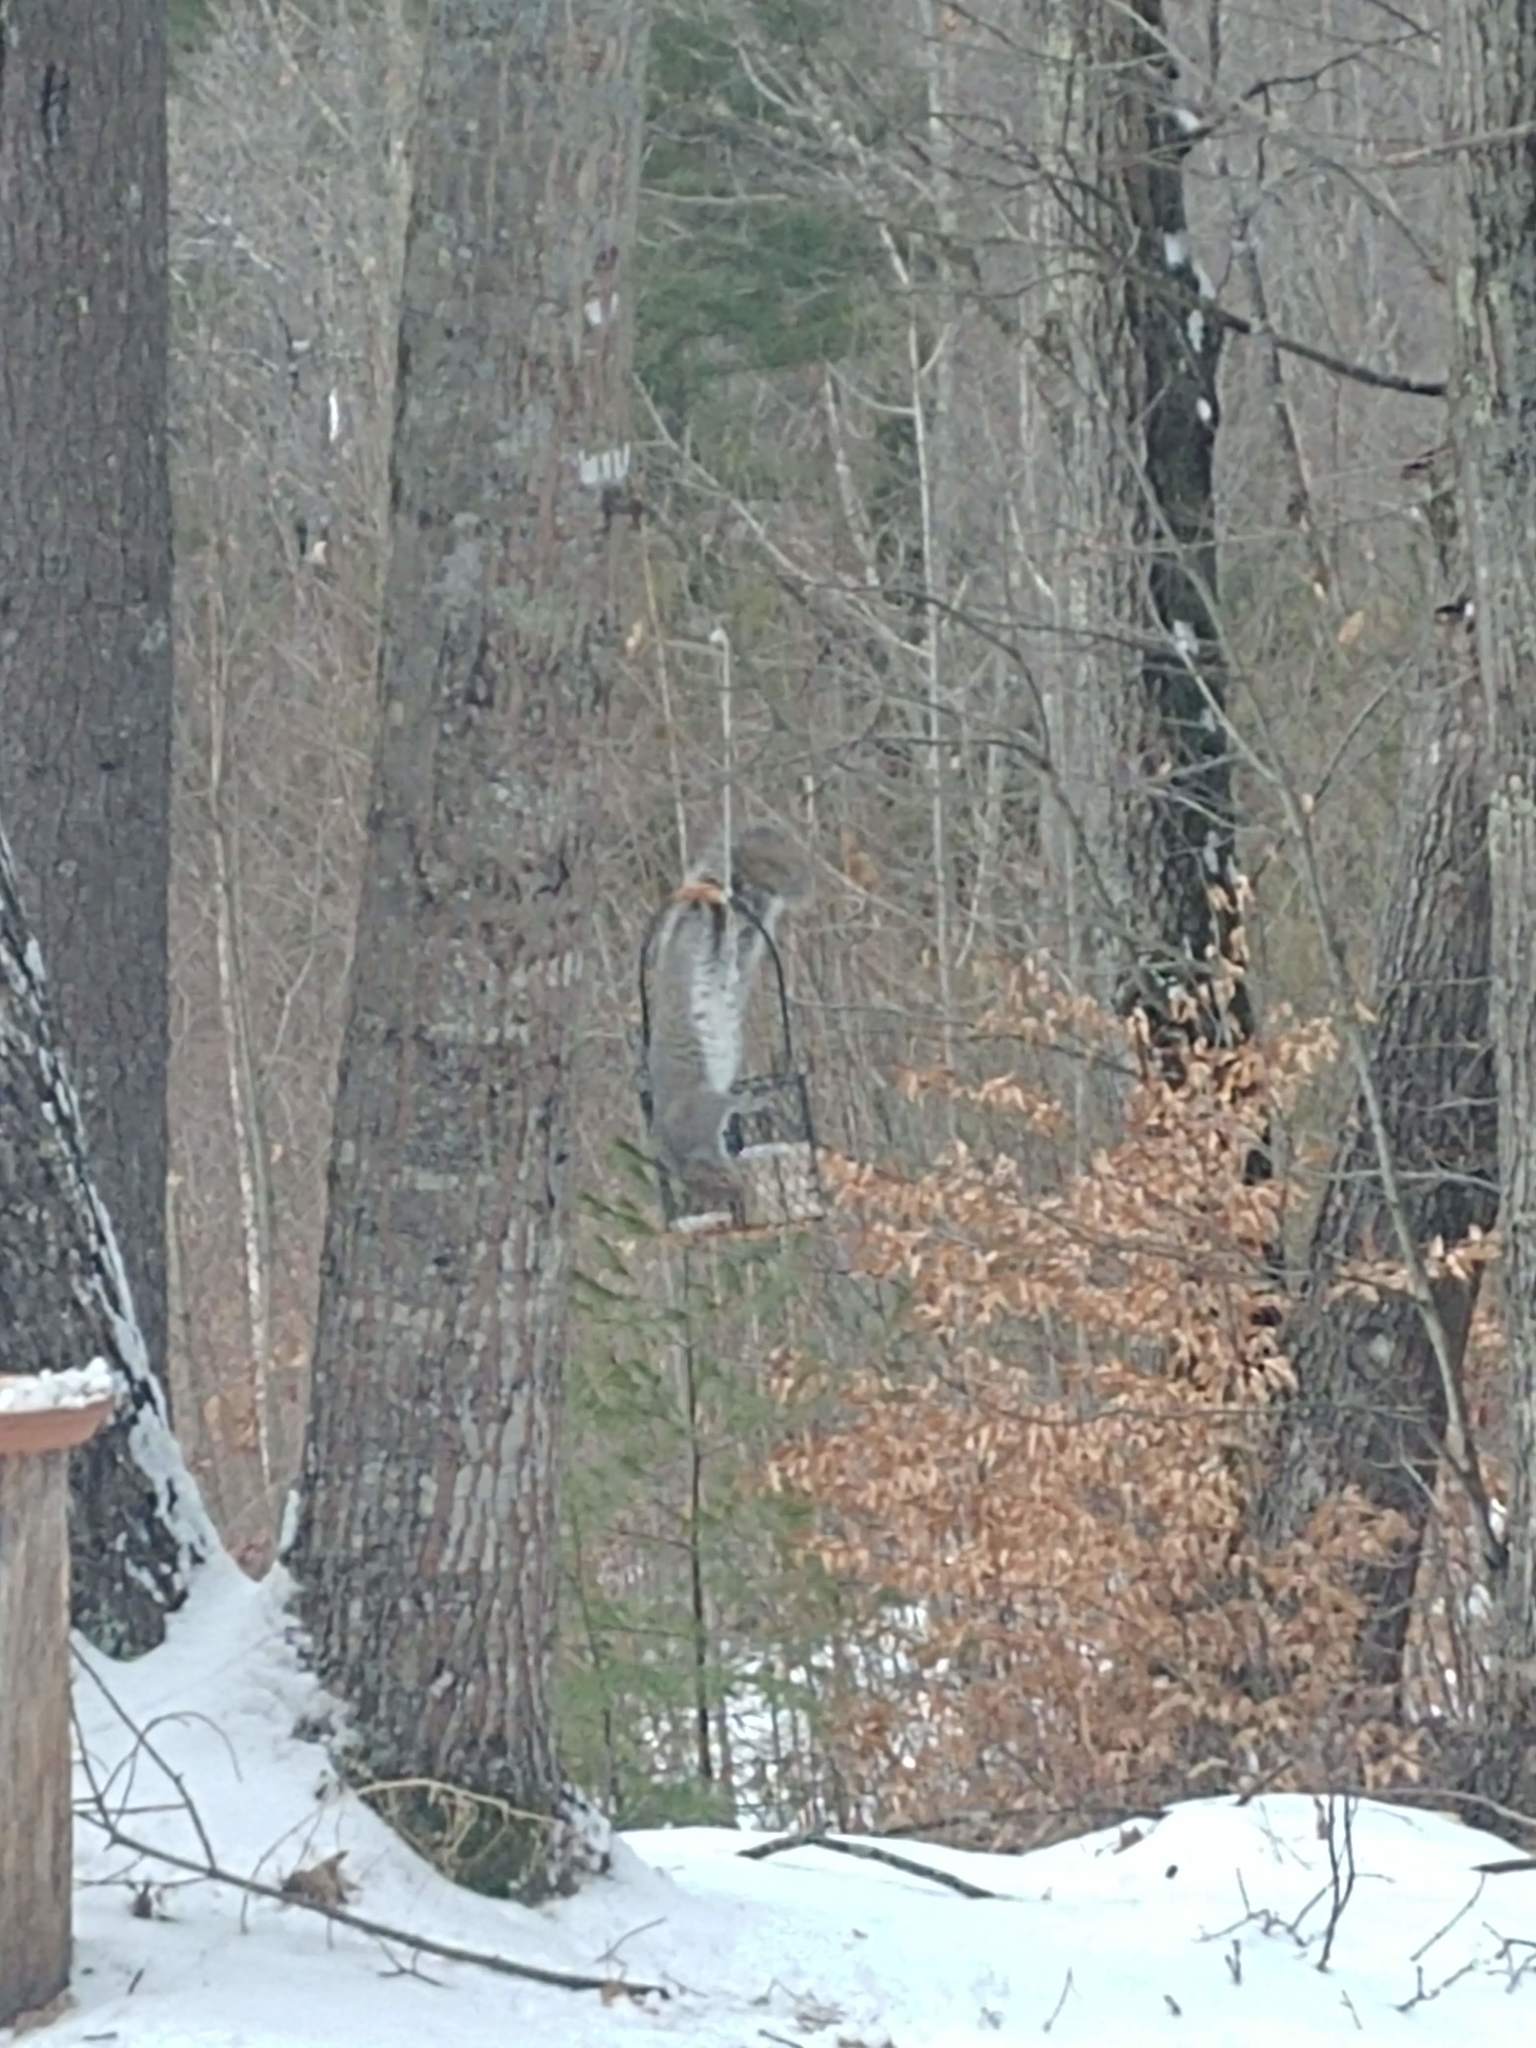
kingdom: Animalia
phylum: Chordata
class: Mammalia
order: Rodentia
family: Sciuridae
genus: Sciurus
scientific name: Sciurus carolinensis
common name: Eastern gray squirrel
